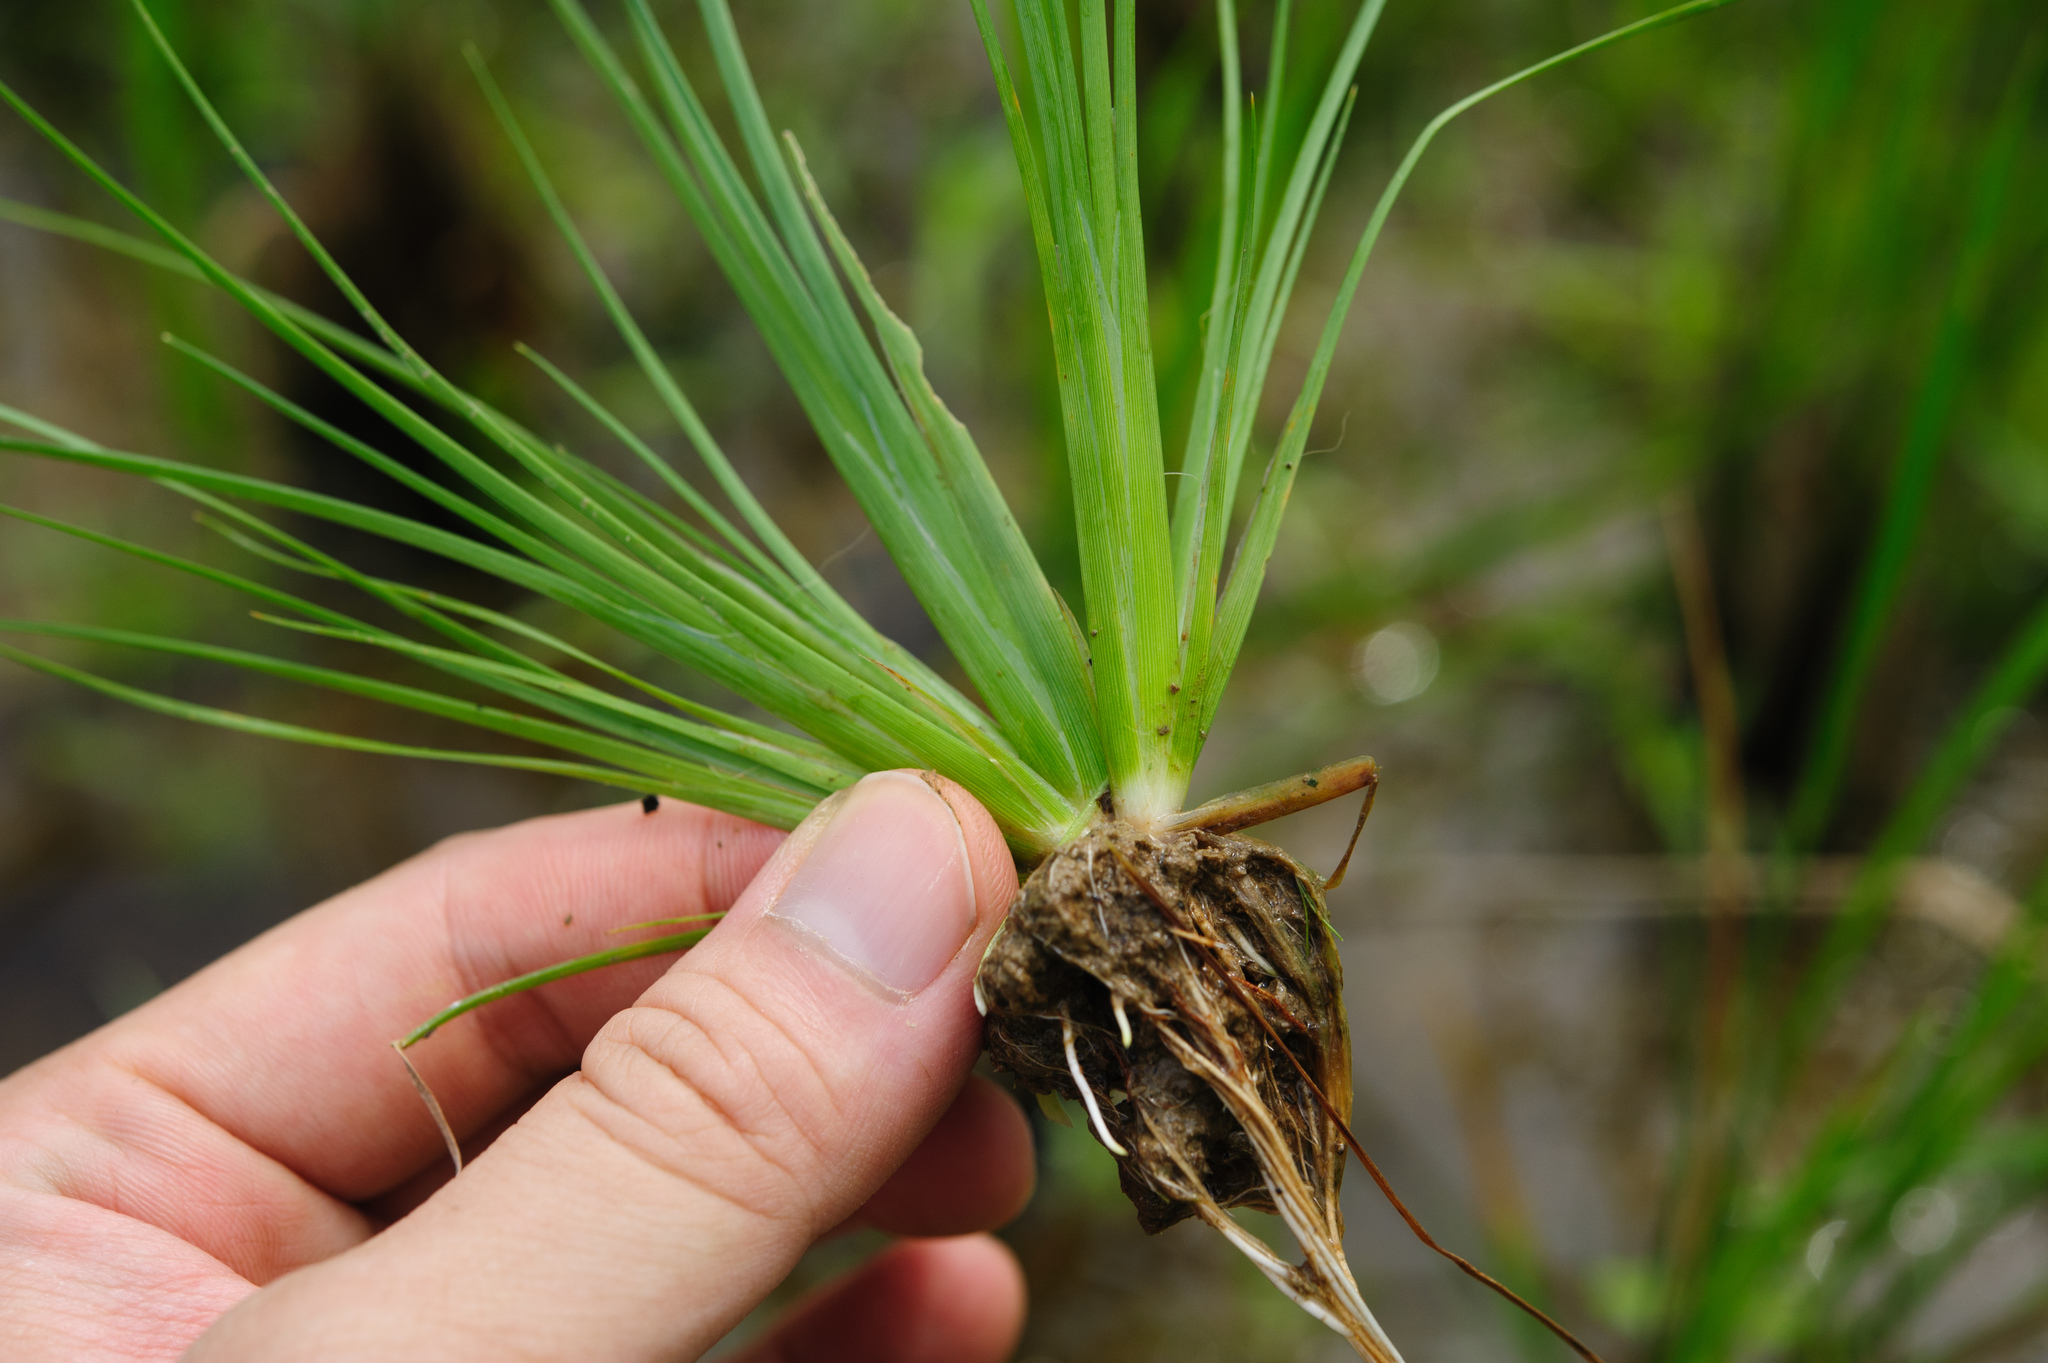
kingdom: Plantae
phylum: Tracheophyta
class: Liliopsida
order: Poales
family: Cyperaceae
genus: Fimbristylis
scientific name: Fimbristylis littoralis
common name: Fimbry
